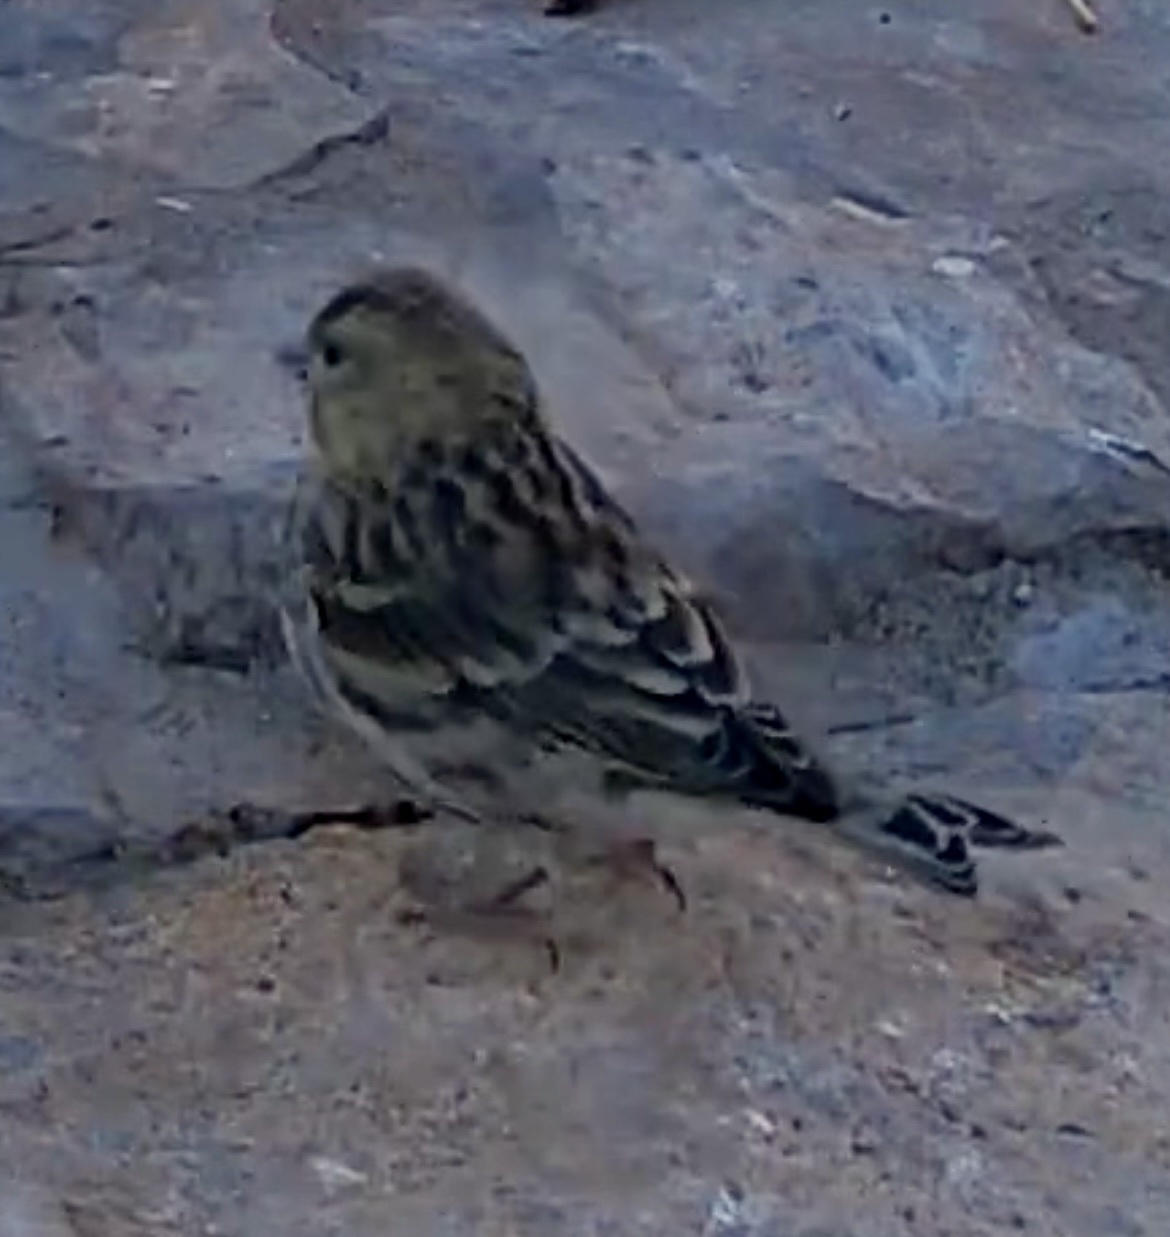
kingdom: Animalia
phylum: Chordata
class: Aves
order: Passeriformes
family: Fringillidae
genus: Serinus
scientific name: Serinus serinus
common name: European serin
